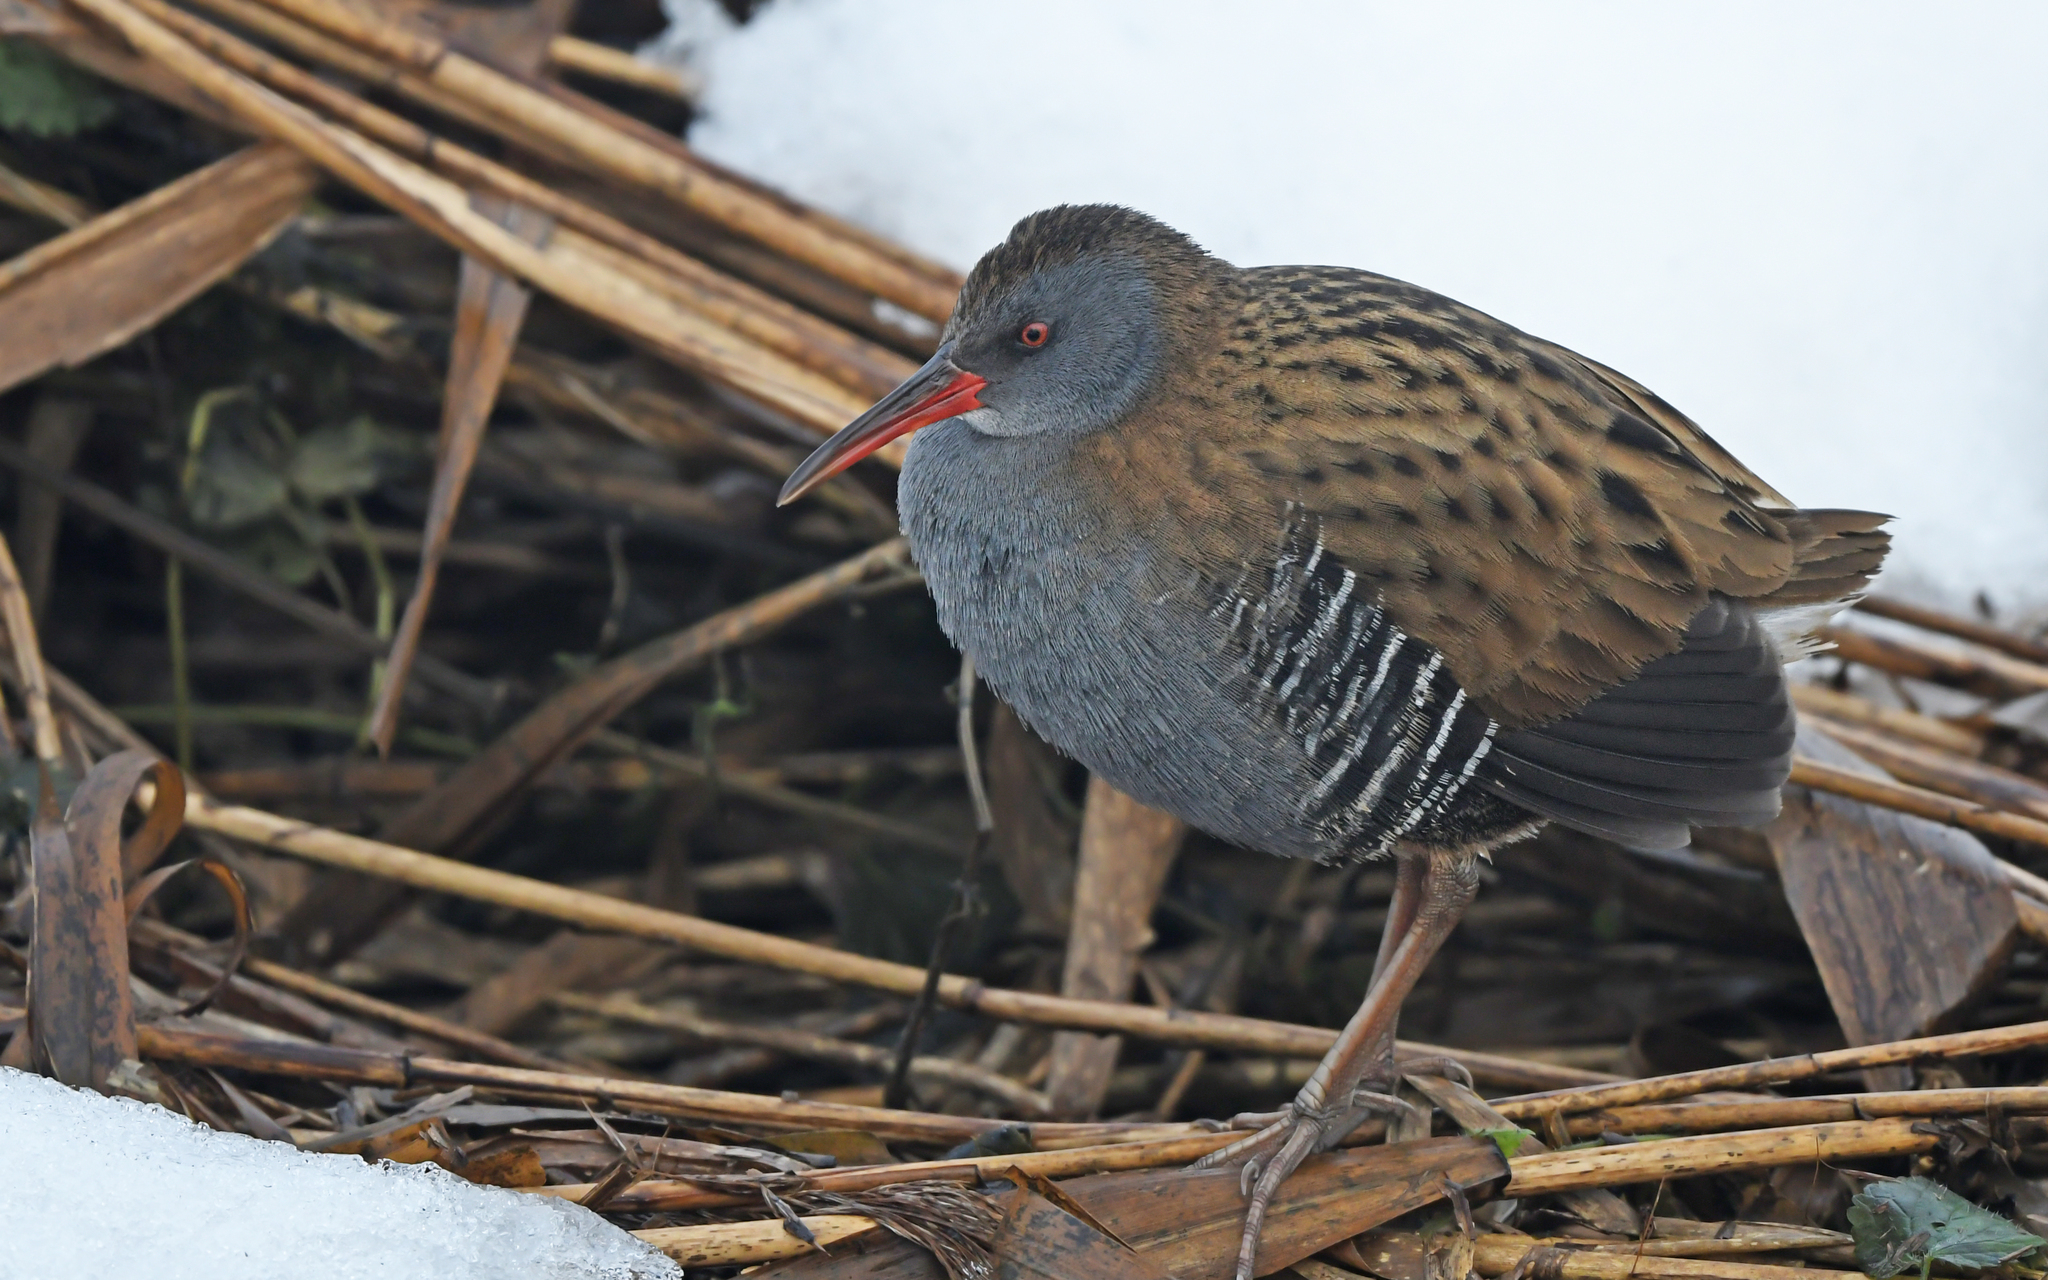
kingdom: Animalia
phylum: Chordata
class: Aves
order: Gruiformes
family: Rallidae
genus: Rallus
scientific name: Rallus aquaticus
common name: Water rail
